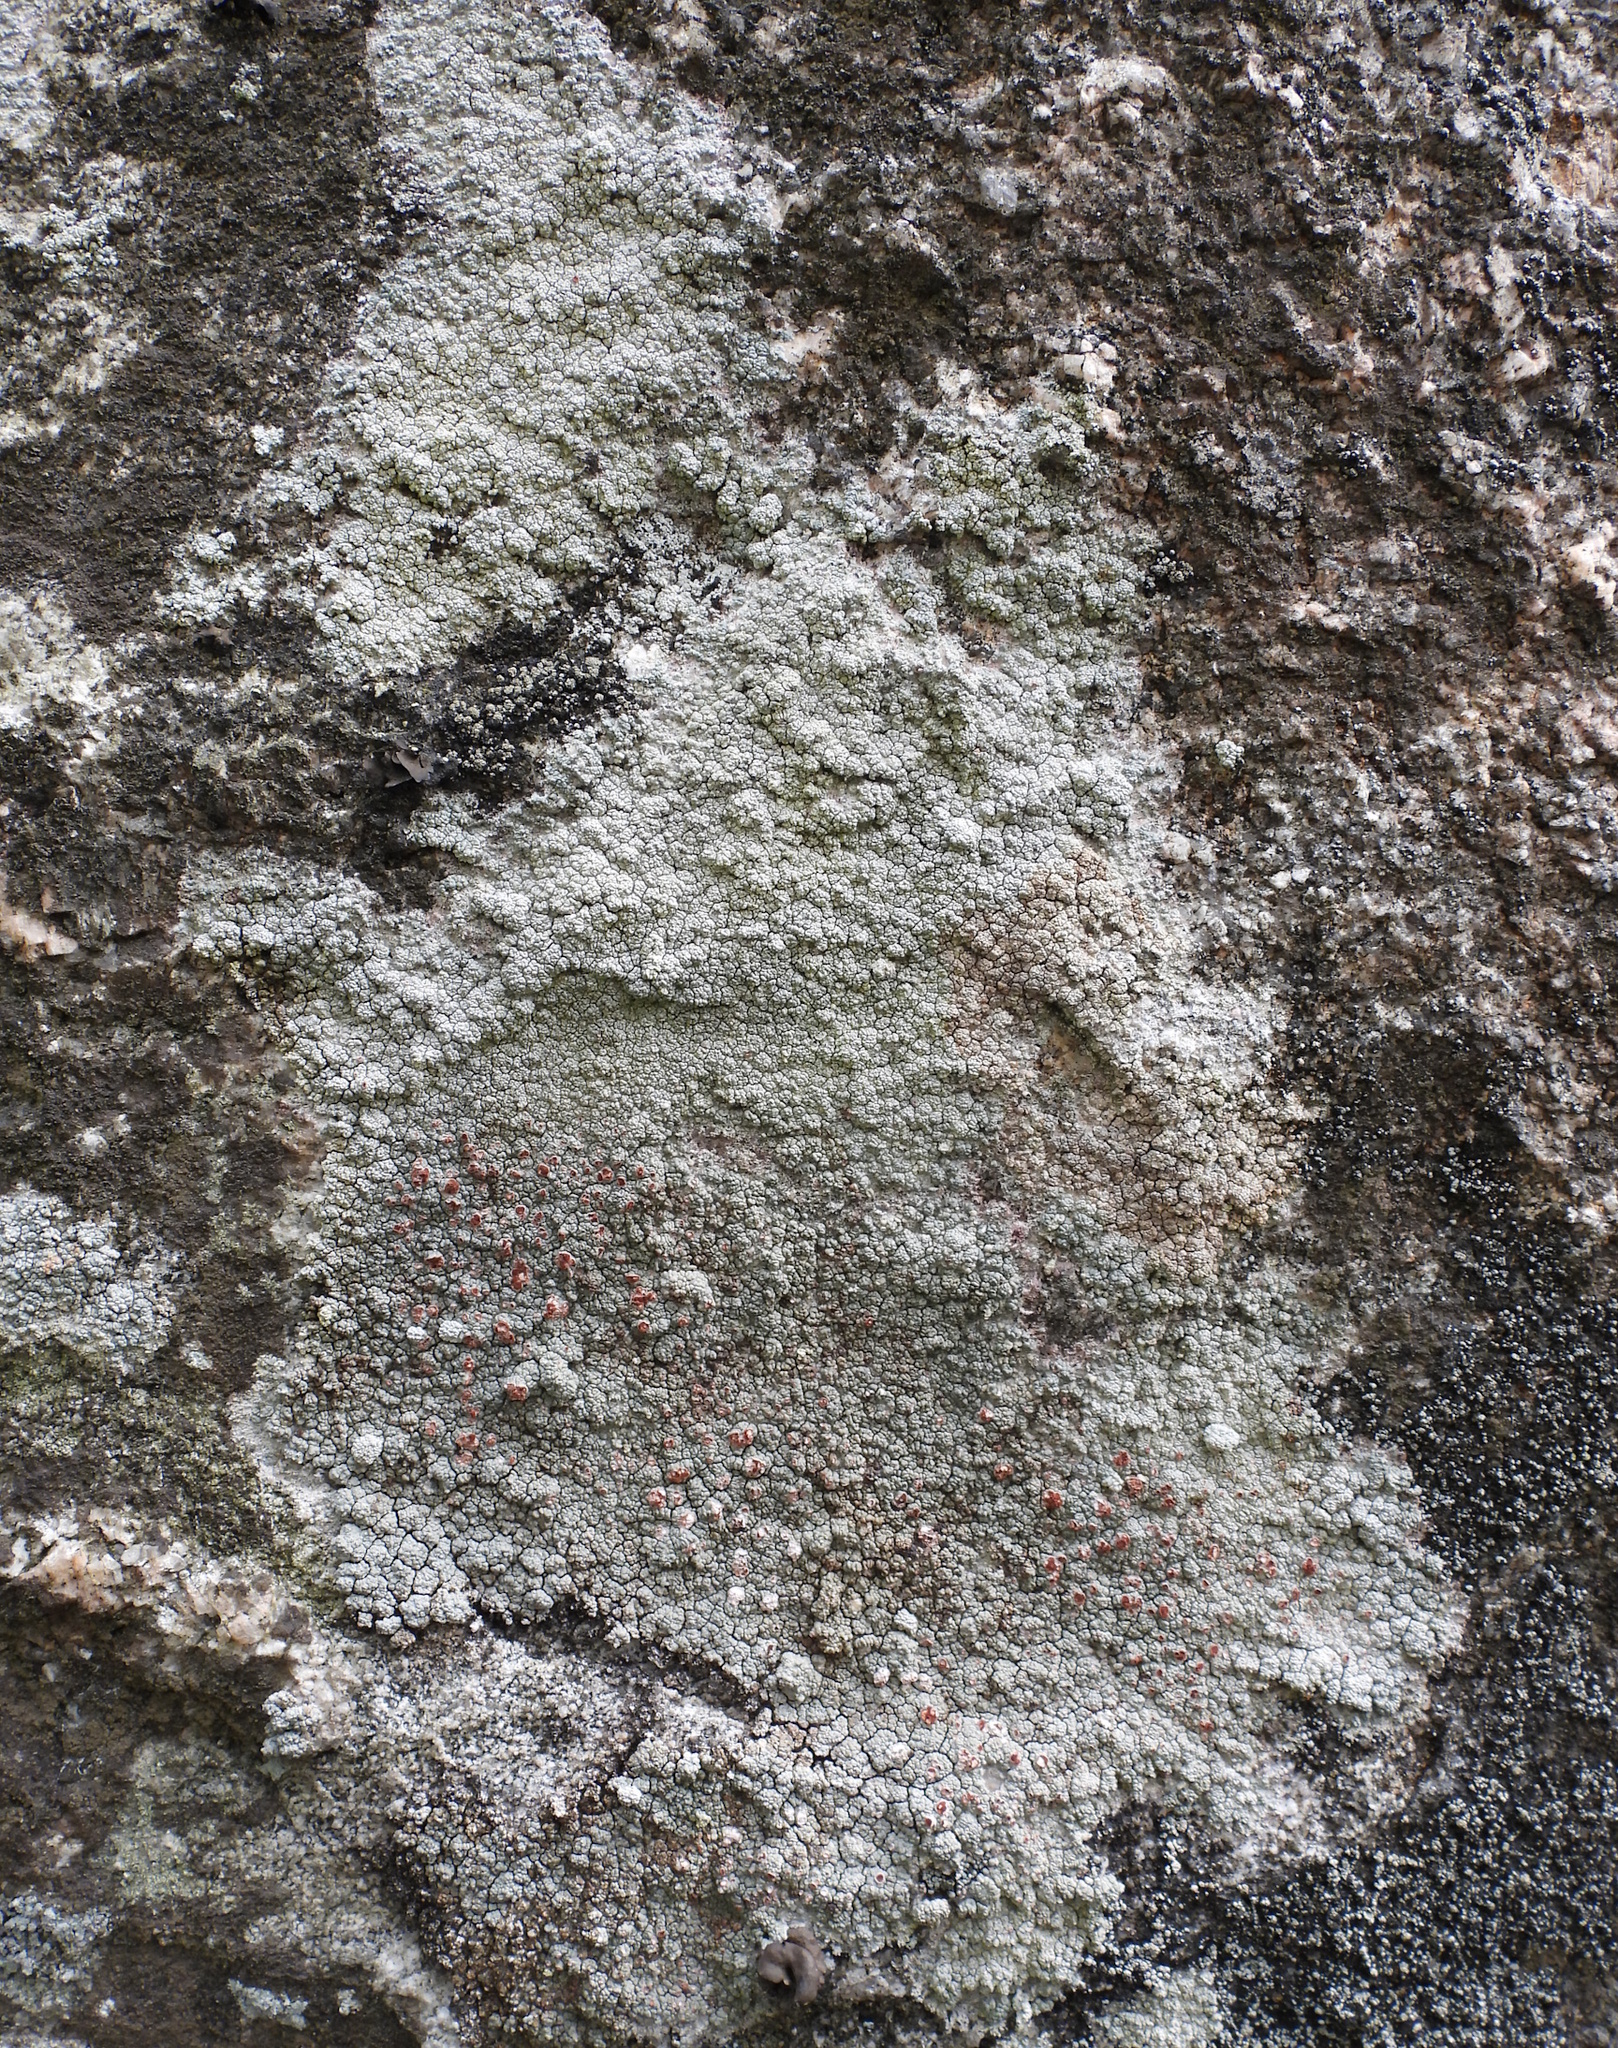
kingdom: Fungi
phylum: Ascomycota
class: Lecanoromycetes
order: Umbilicariales
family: Ophioparmaceae
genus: Ophioparma
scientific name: Ophioparma ventosa
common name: Blood-spot
